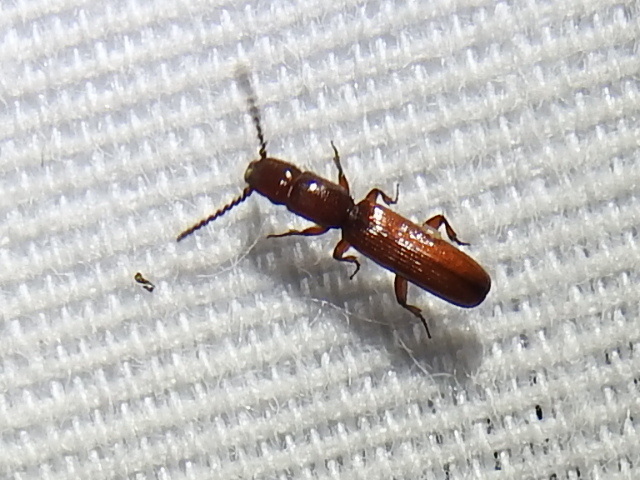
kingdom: Animalia
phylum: Arthropoda
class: Insecta
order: Coleoptera
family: Passandridae
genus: Taphroscelidia
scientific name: Taphroscelidia linearis
